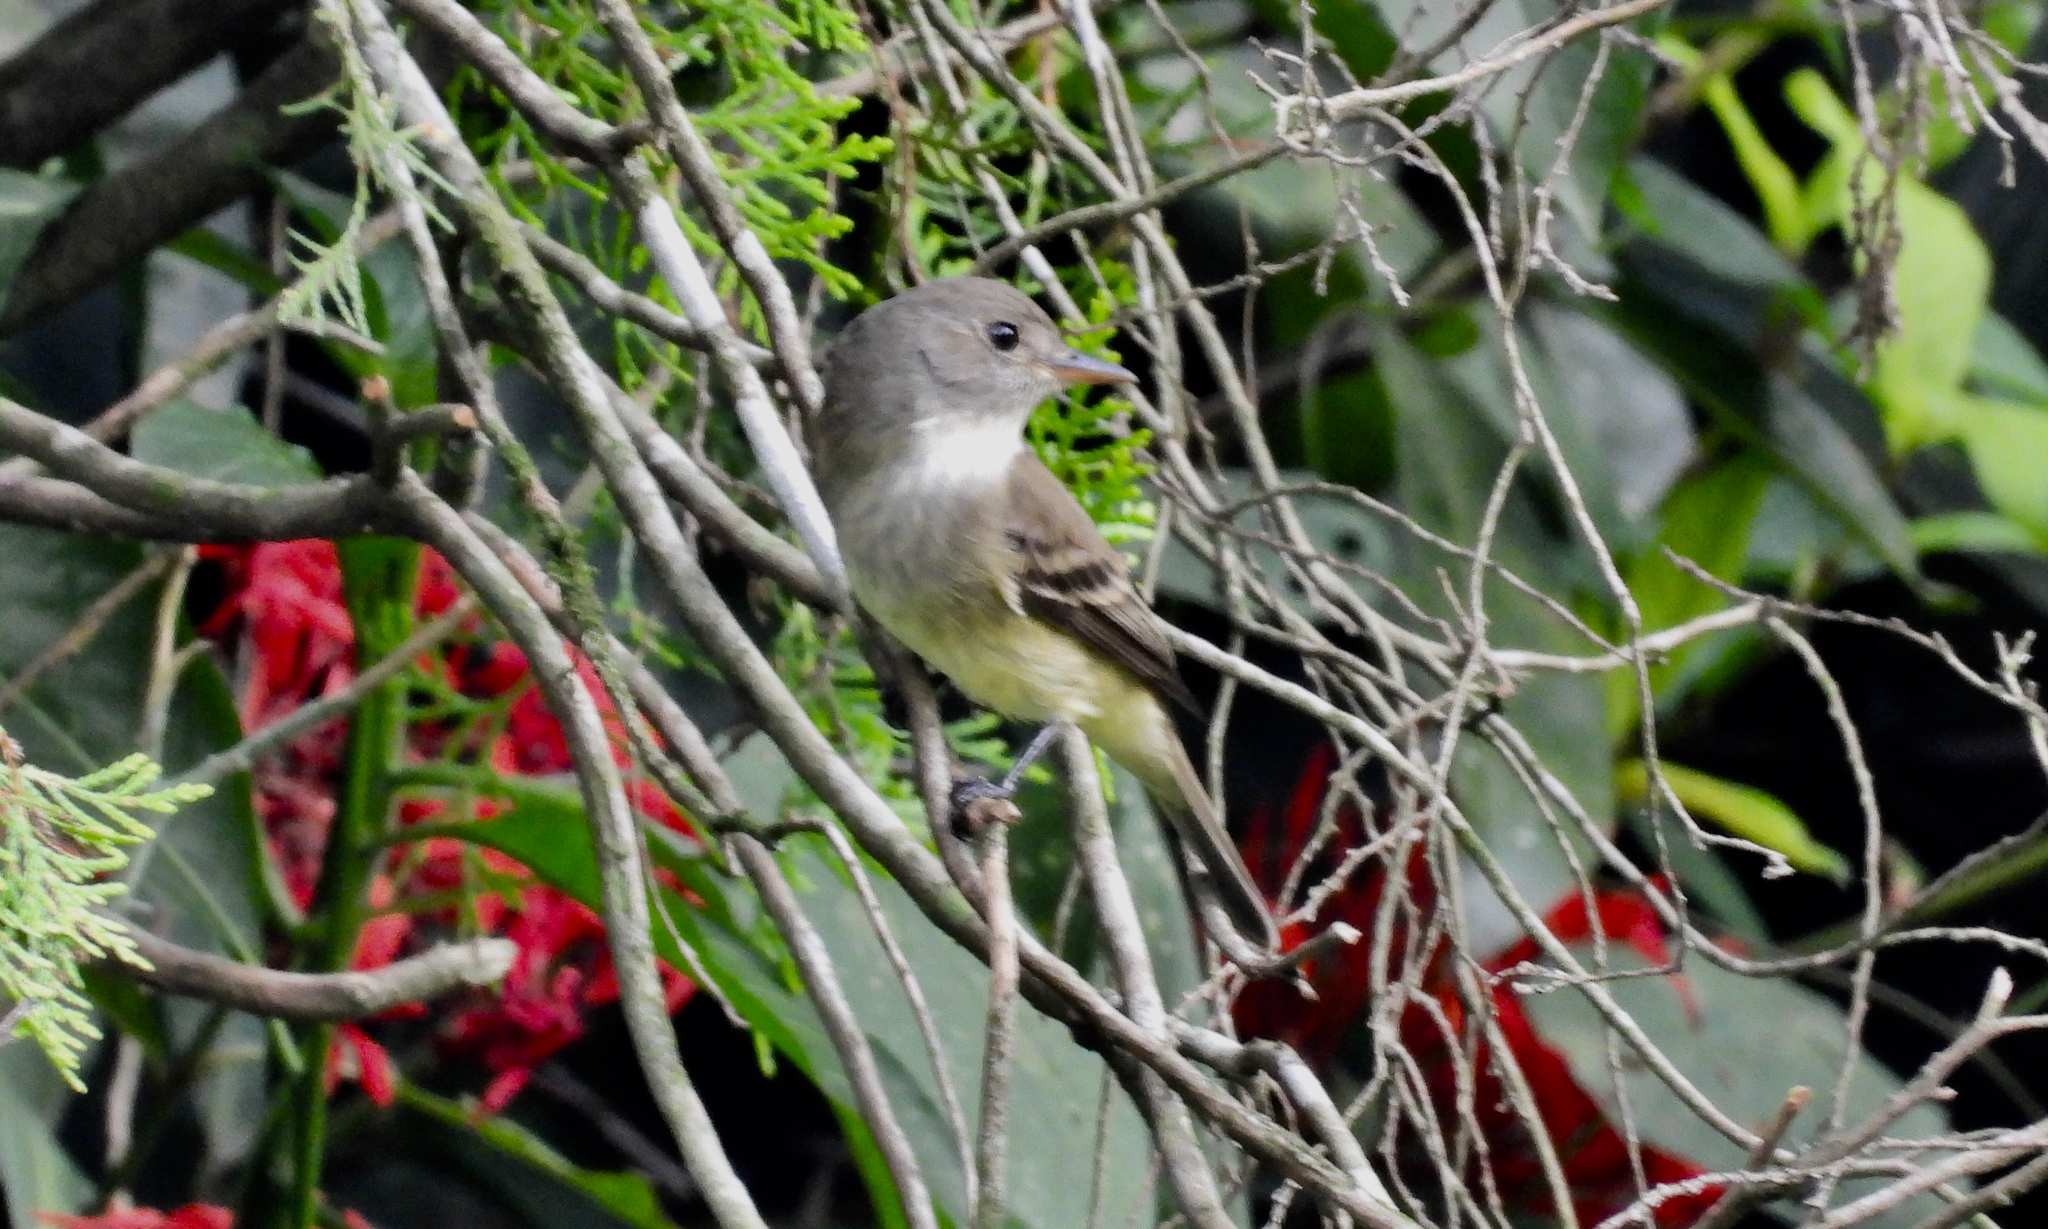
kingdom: Animalia
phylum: Chordata
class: Aves
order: Passeriformes
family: Tyrannidae
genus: Empidonax
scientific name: Empidonax traillii
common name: Willow flycatcher
